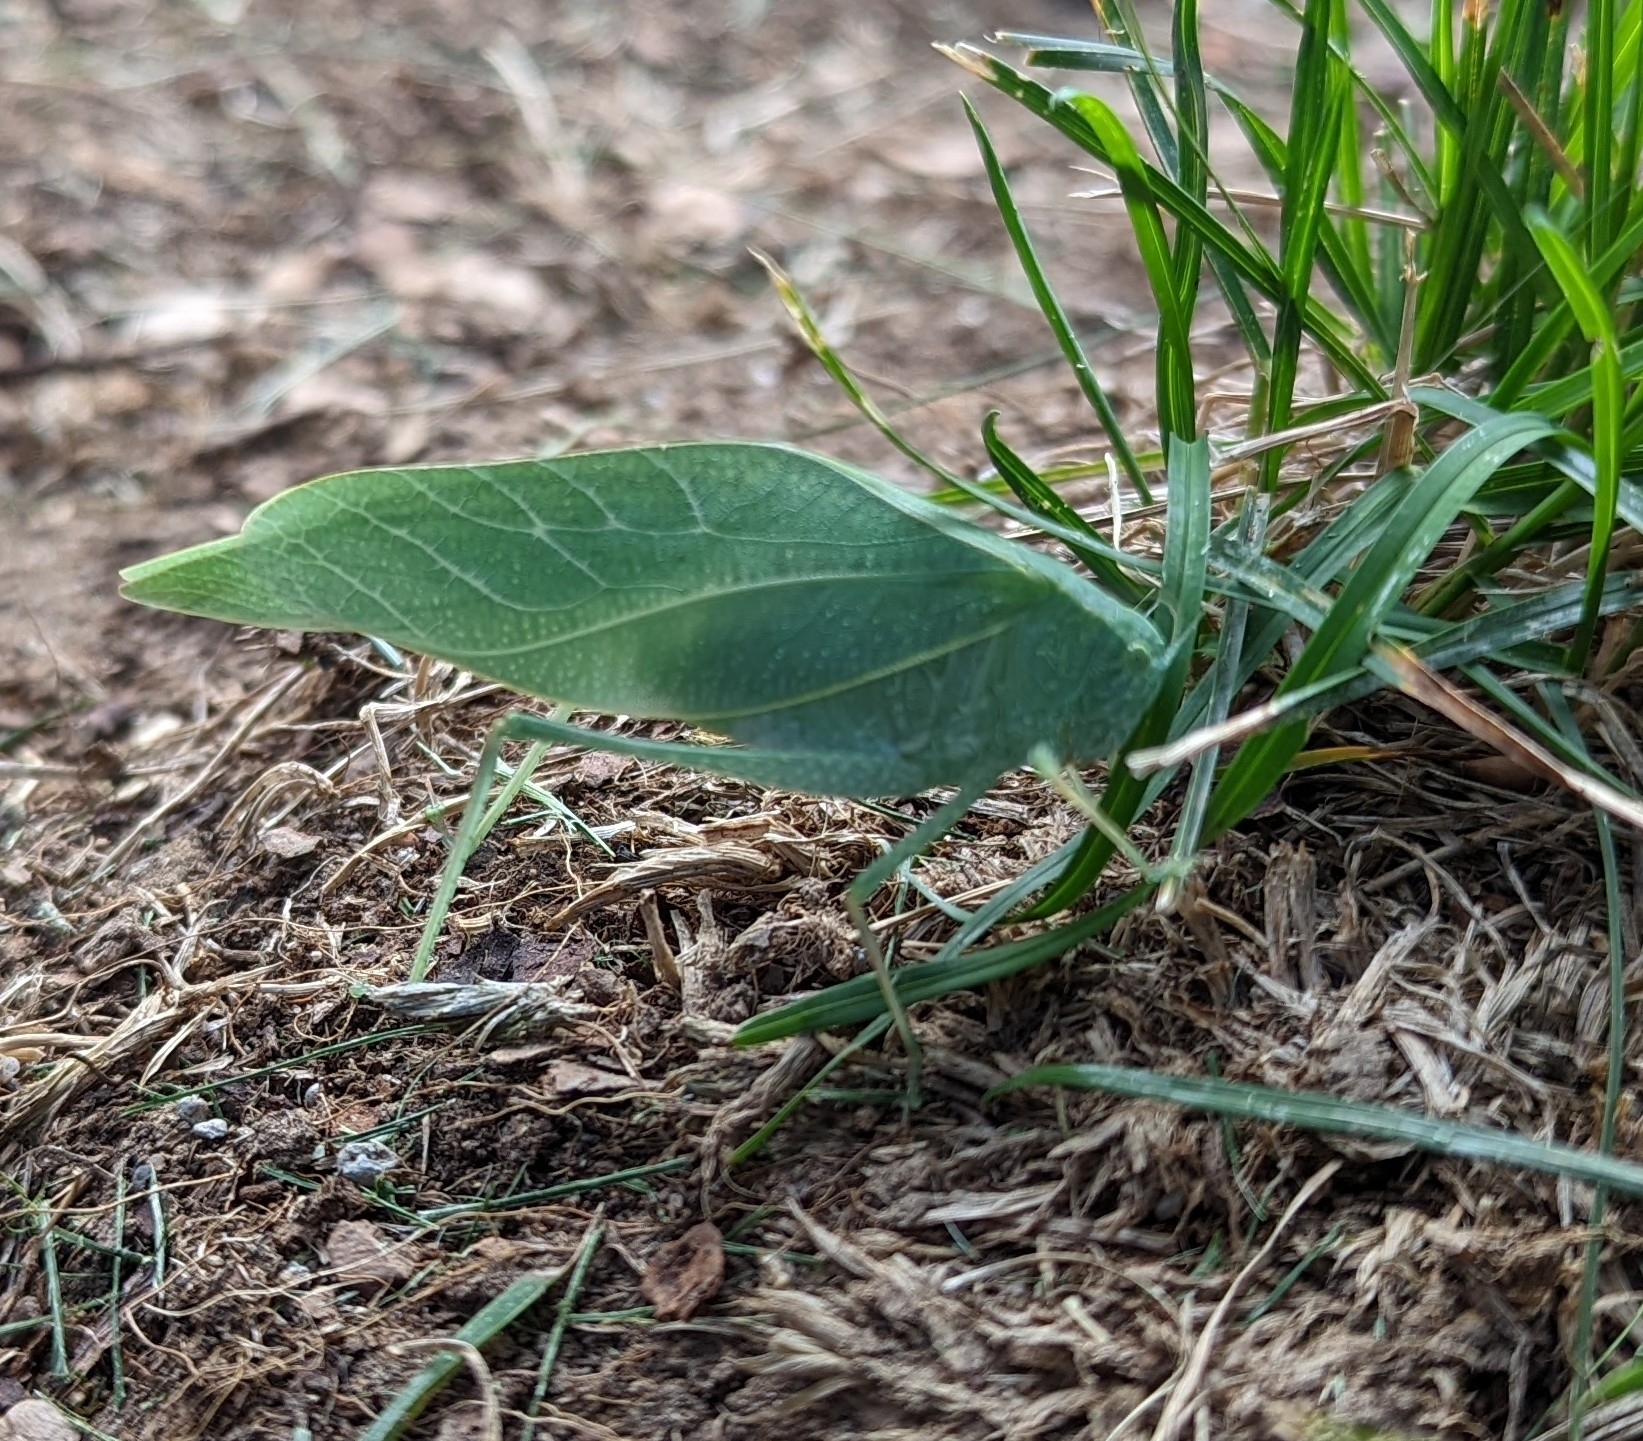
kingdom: Animalia
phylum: Arthropoda
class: Insecta
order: Orthoptera
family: Tettigoniidae
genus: Microcentrum
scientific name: Microcentrum rhombifolium
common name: Broad-winged katydid
